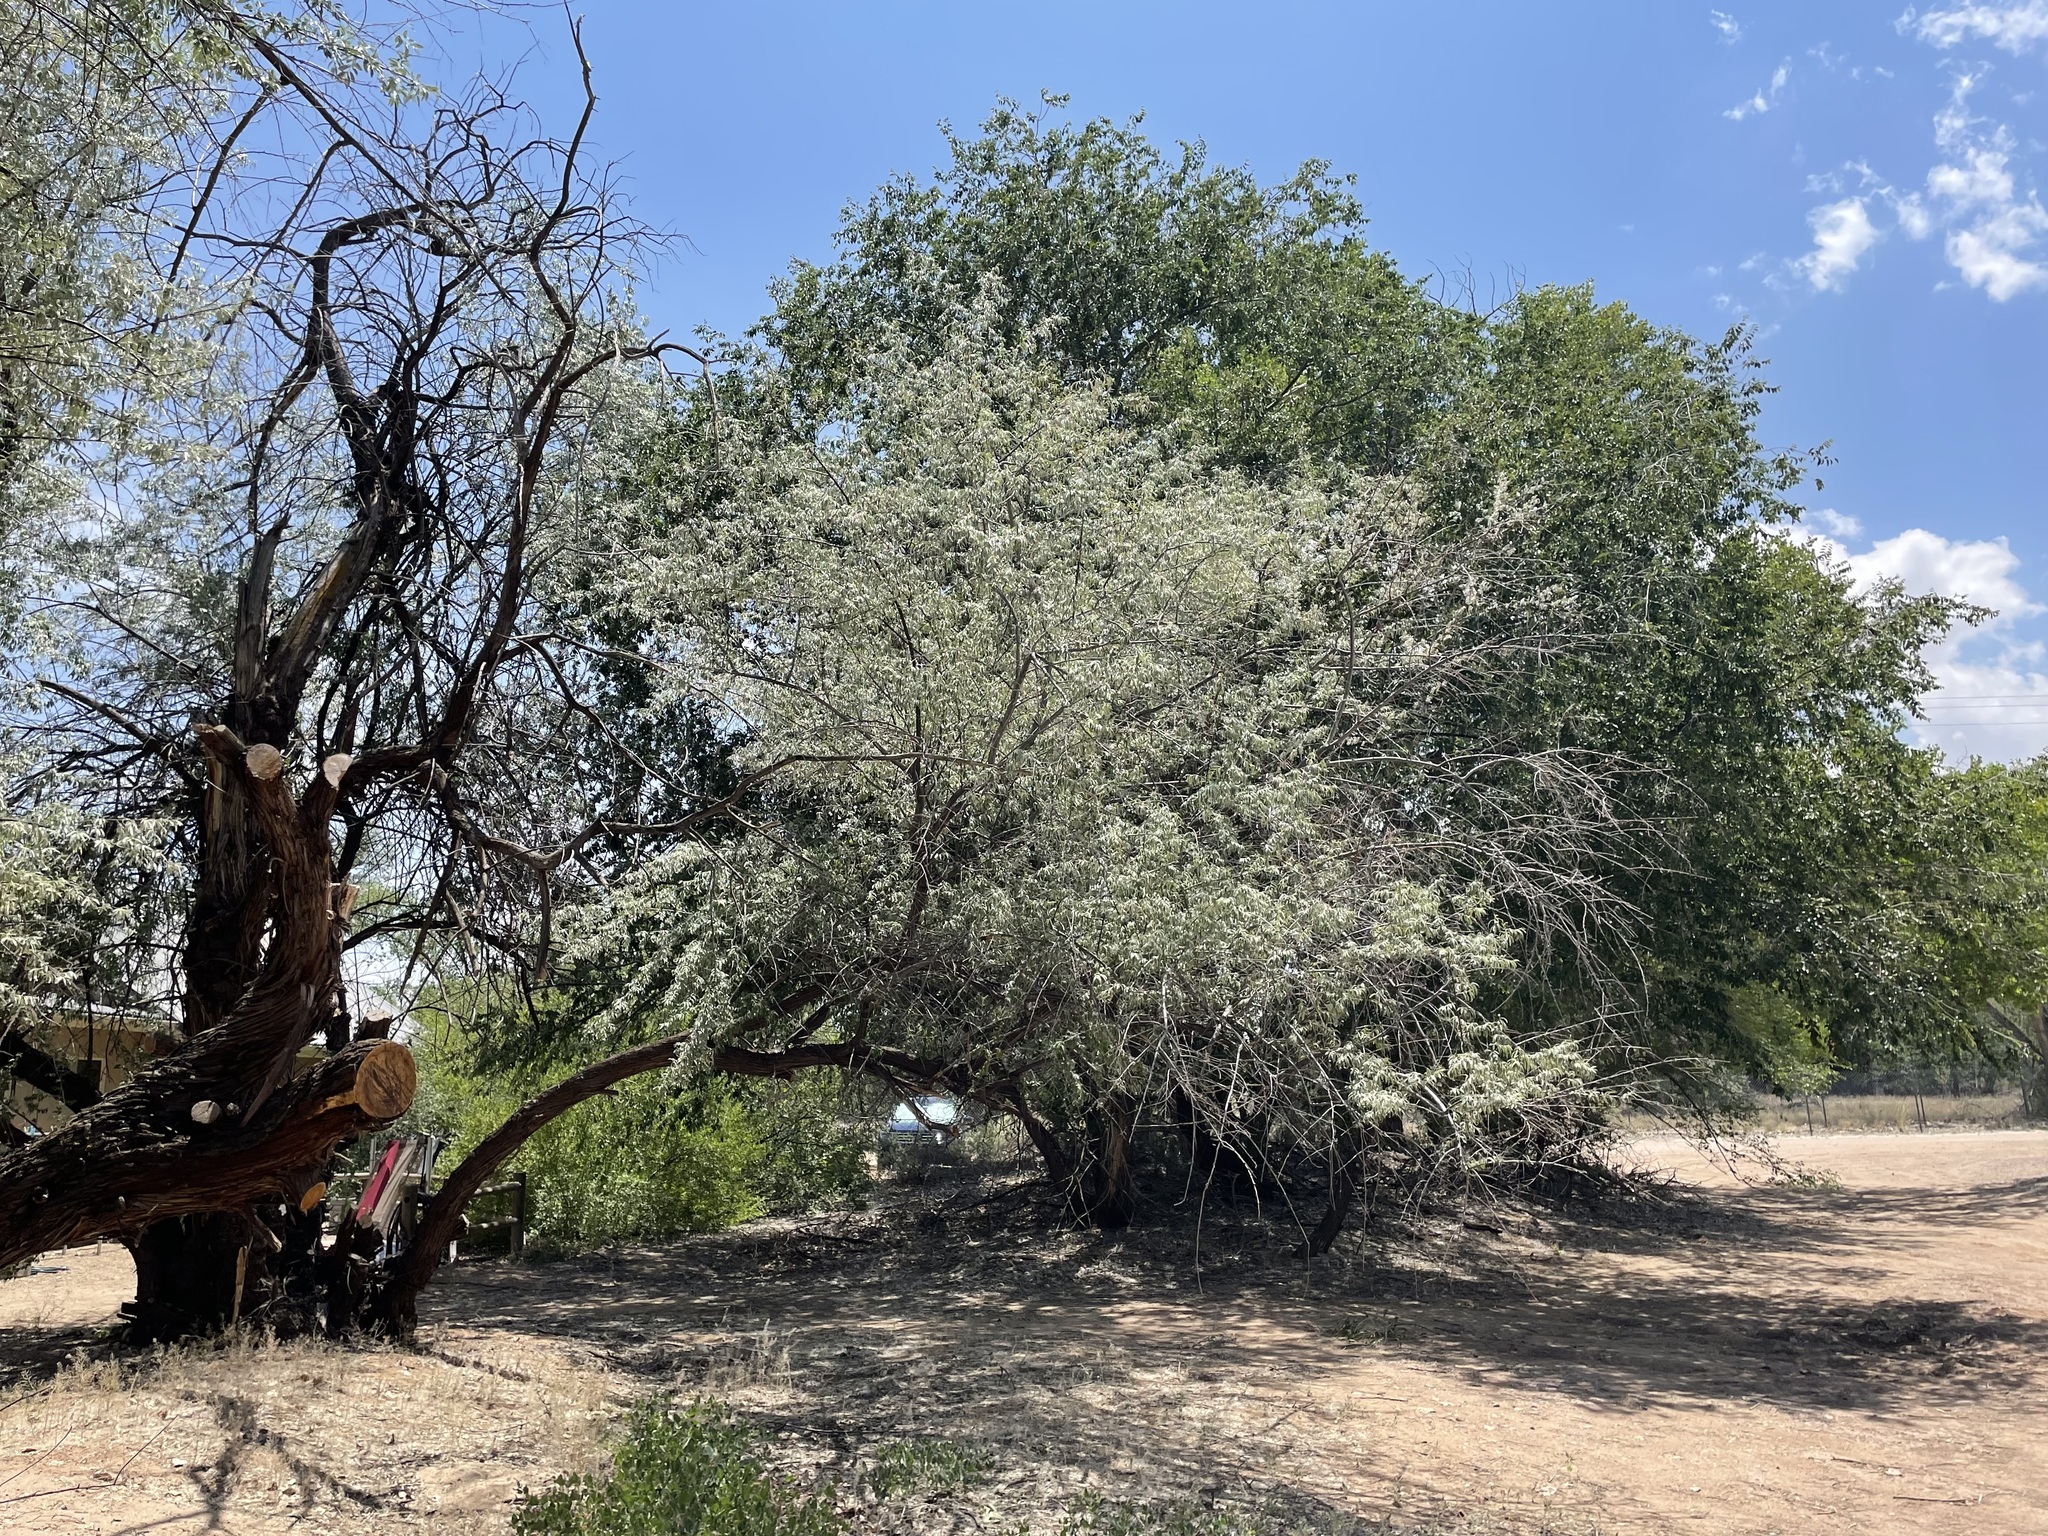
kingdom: Plantae
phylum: Tracheophyta
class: Magnoliopsida
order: Rosales
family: Elaeagnaceae
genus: Elaeagnus
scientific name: Elaeagnus angustifolia
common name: Russian olive
